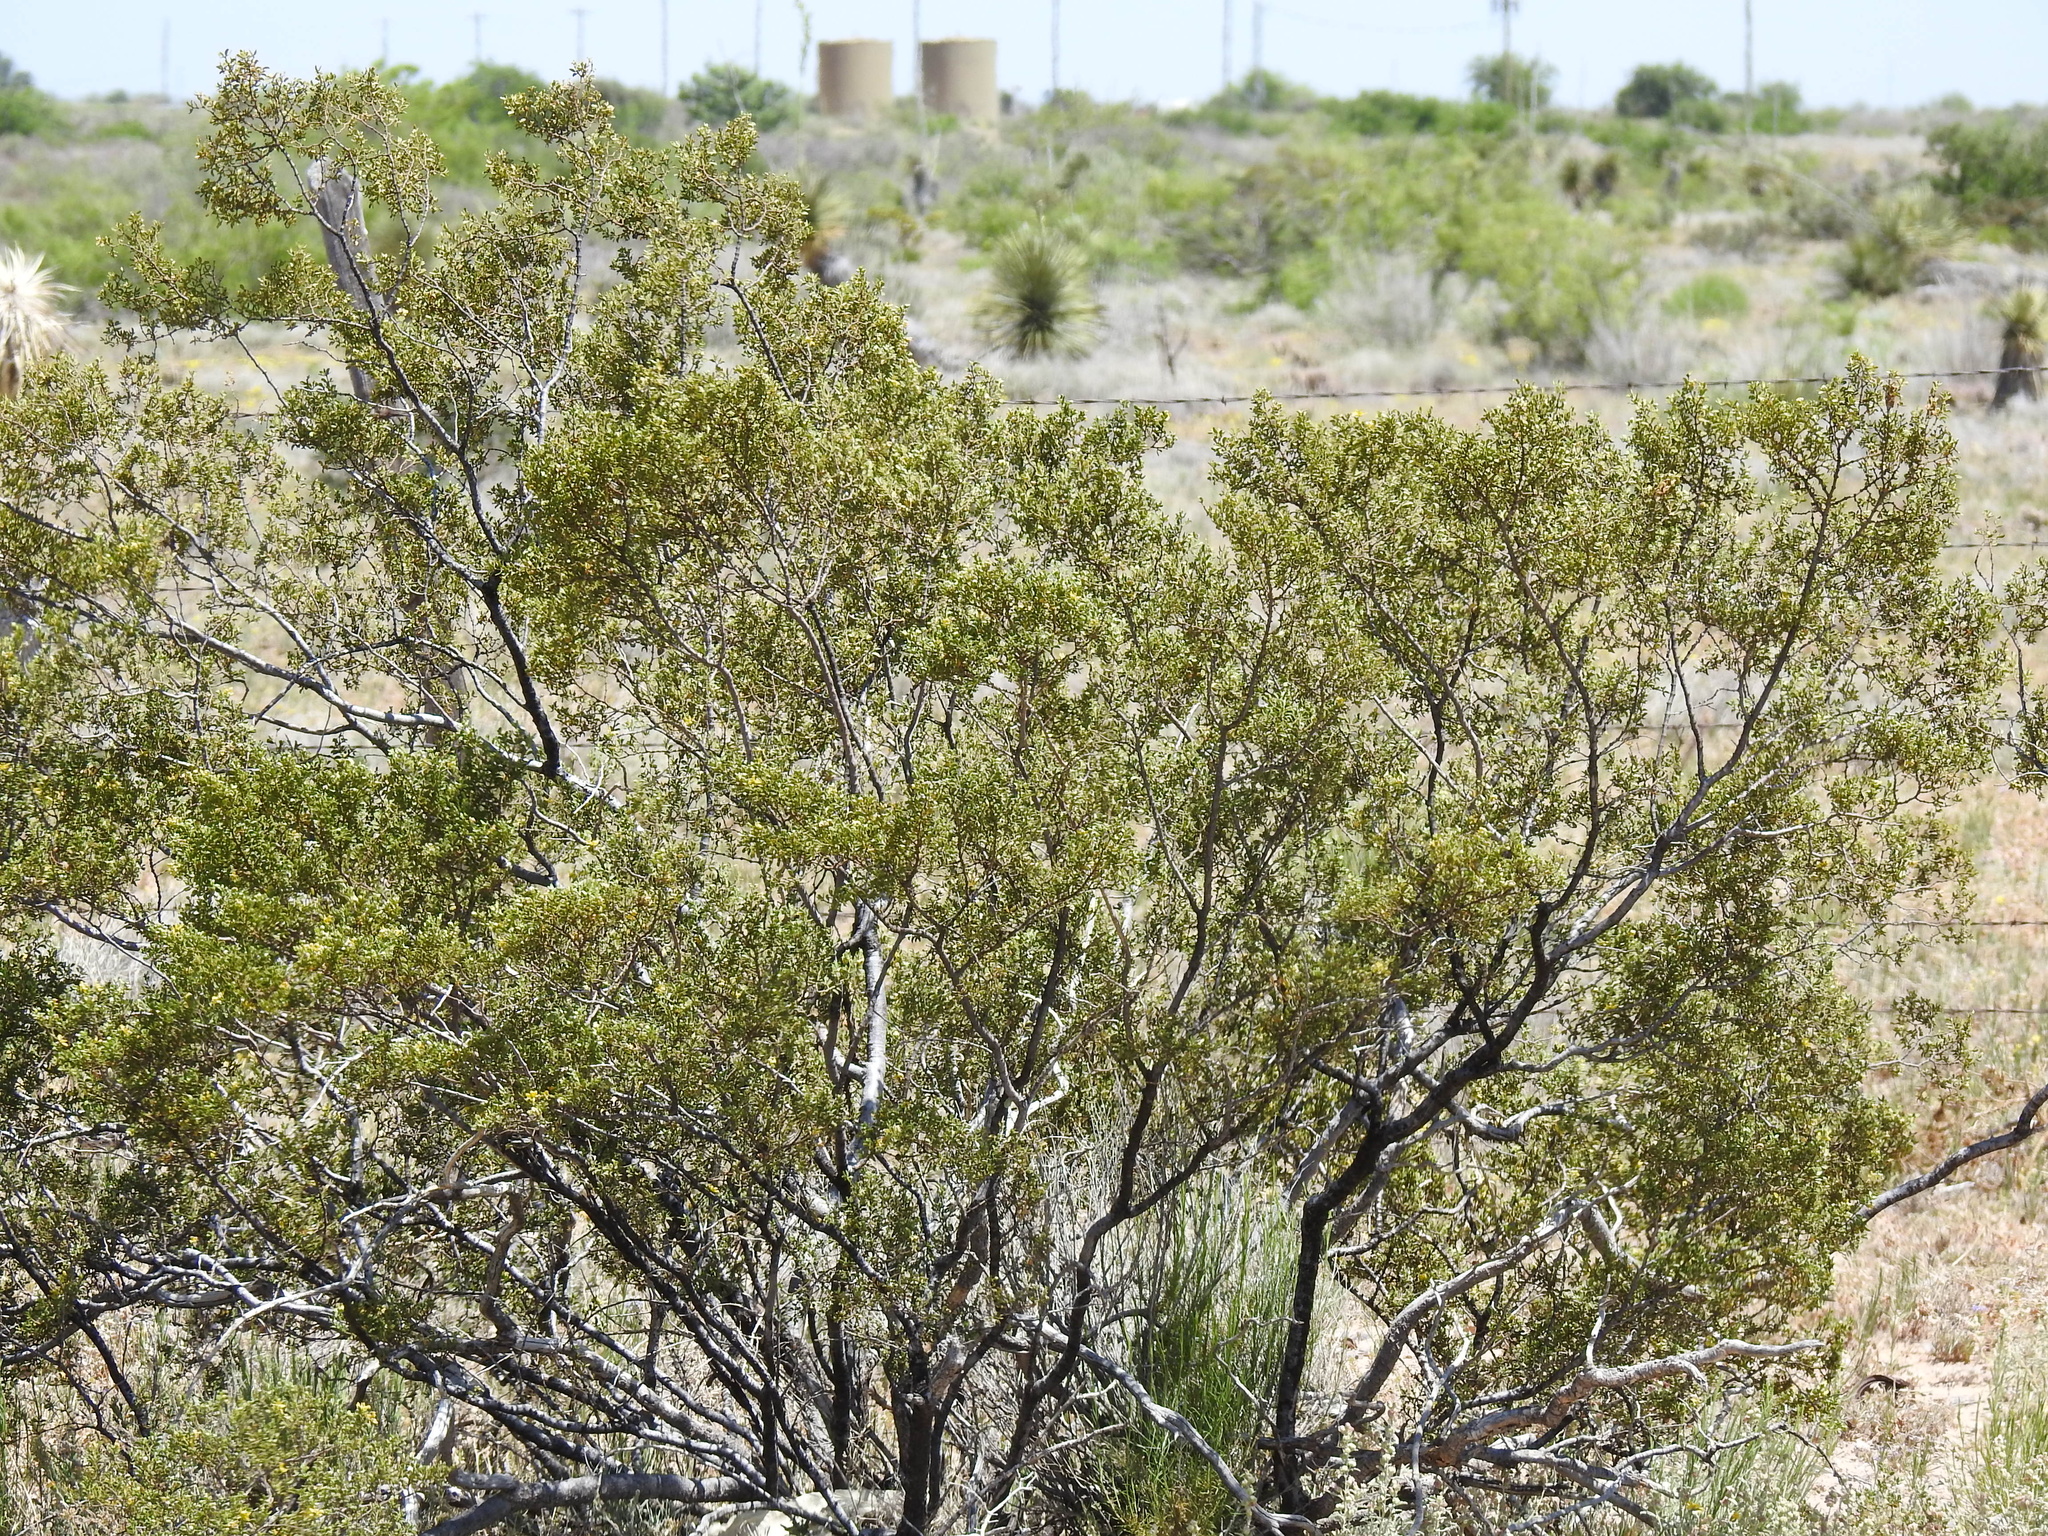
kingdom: Plantae
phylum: Tracheophyta
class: Magnoliopsida
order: Zygophyllales
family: Zygophyllaceae
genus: Larrea
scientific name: Larrea tridentata
